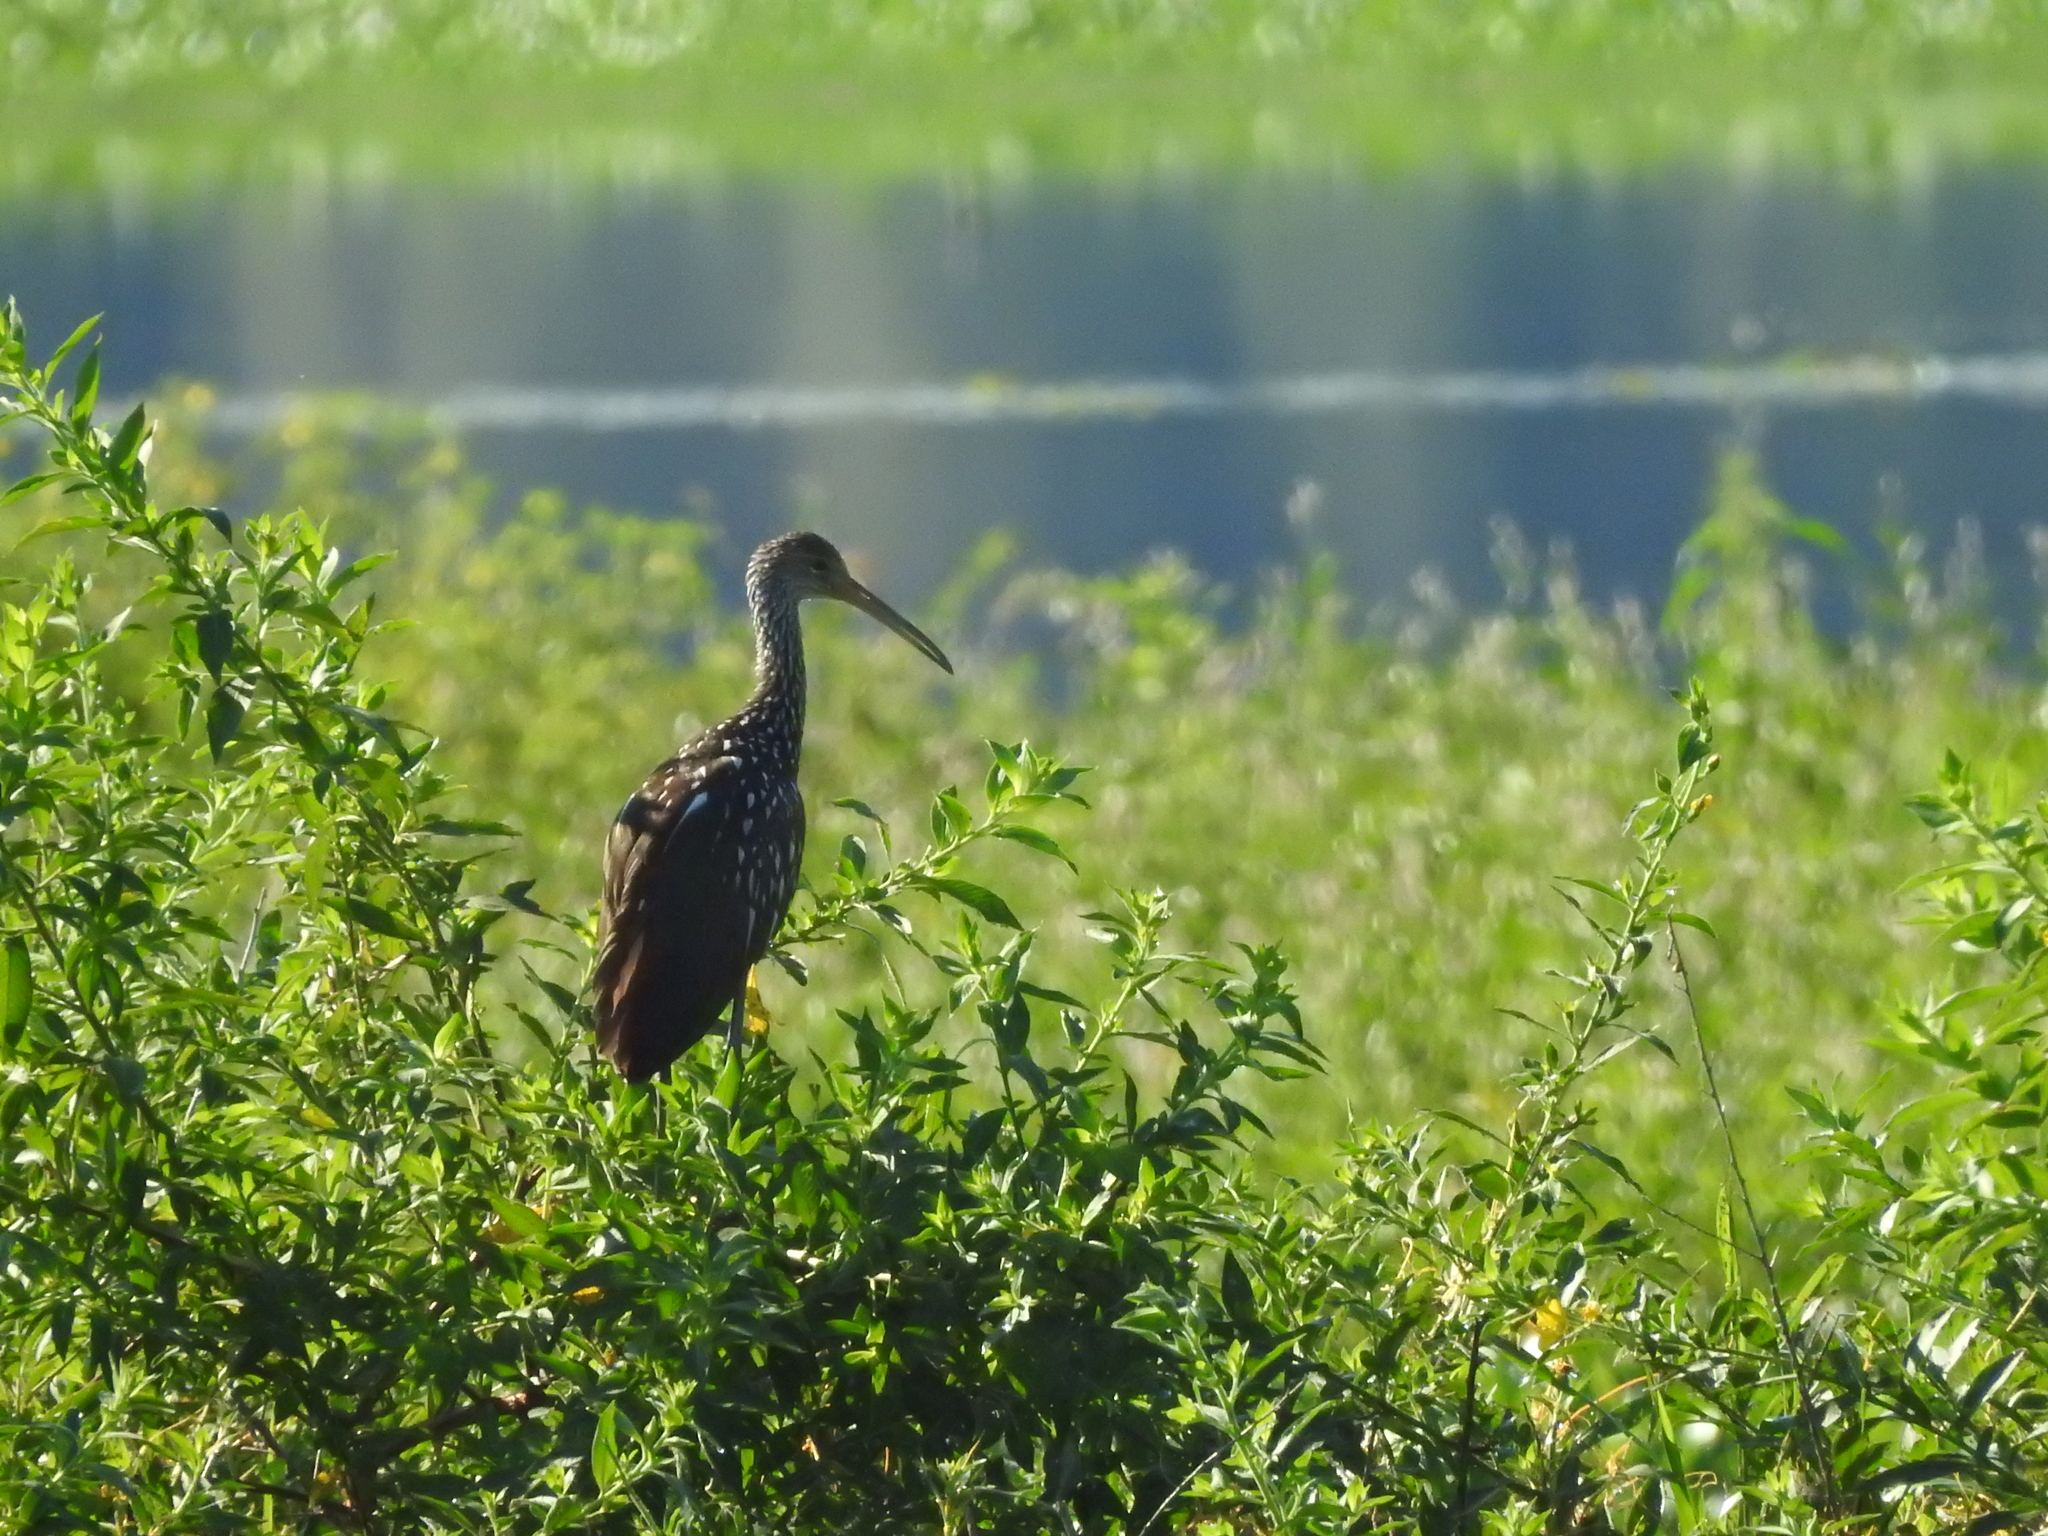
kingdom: Animalia
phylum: Chordata
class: Aves
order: Gruiformes
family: Aramidae
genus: Aramus
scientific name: Aramus guarauna
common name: Limpkin
